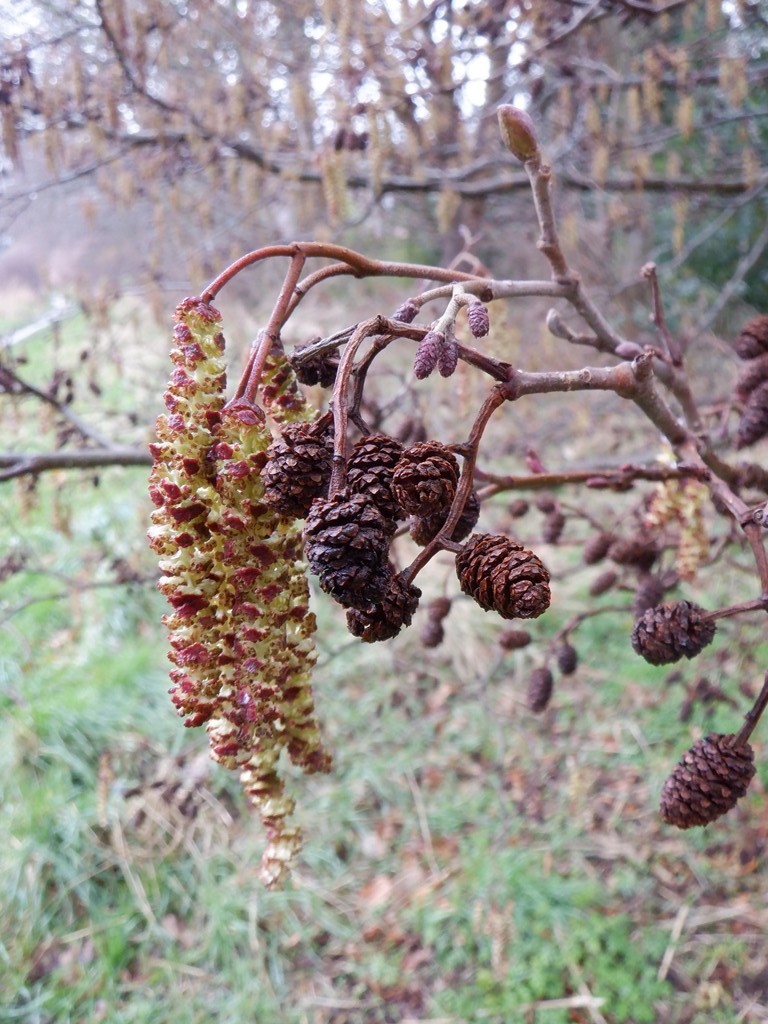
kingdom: Plantae
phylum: Tracheophyta
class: Magnoliopsida
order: Fagales
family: Betulaceae
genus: Alnus
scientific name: Alnus glutinosa
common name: Black alder
